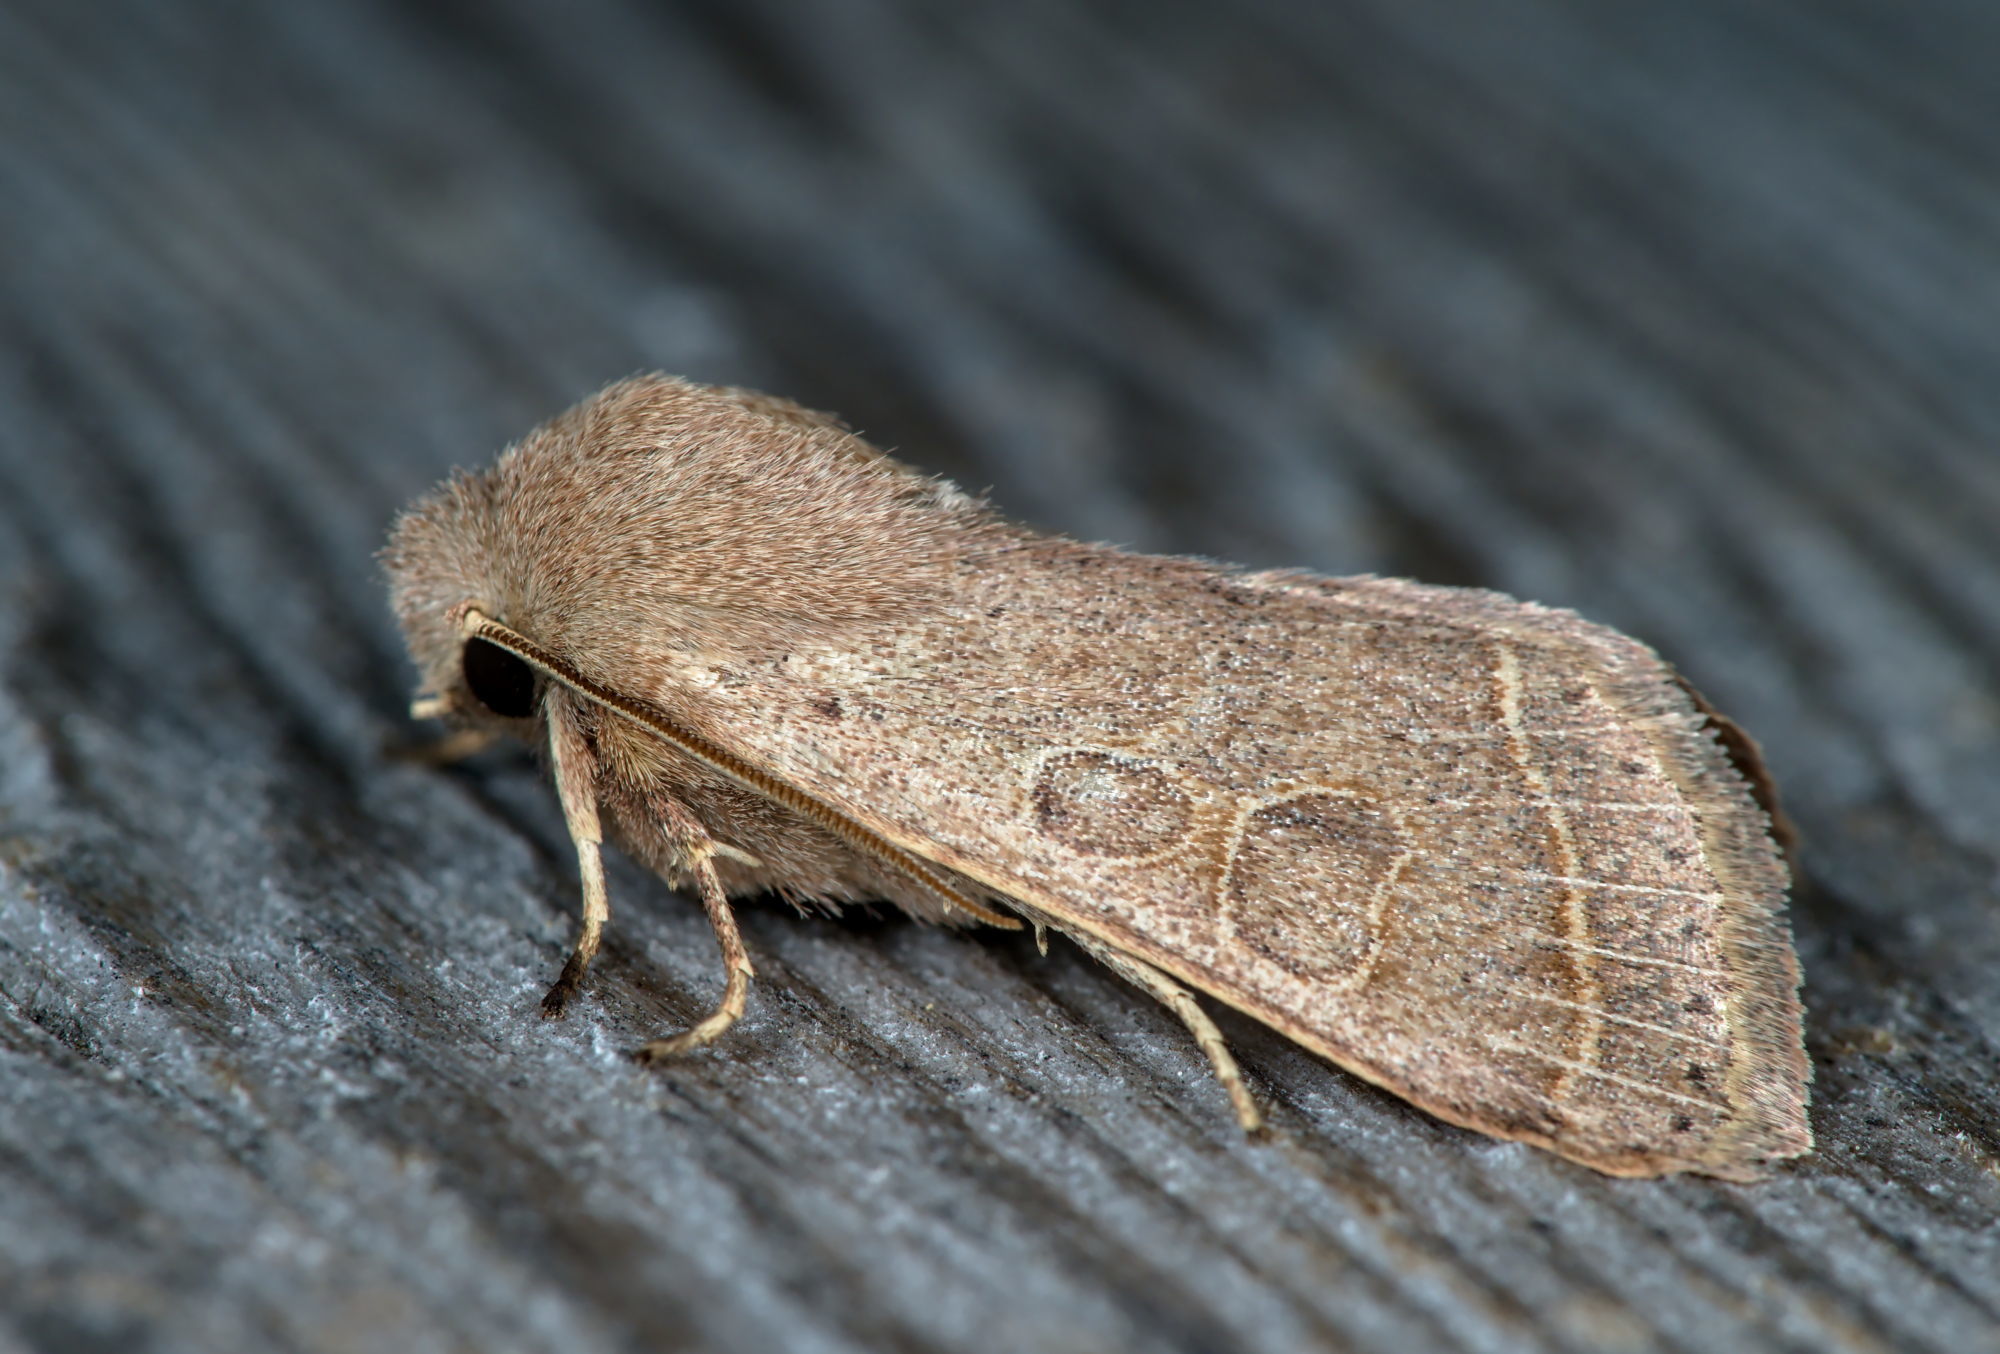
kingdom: Animalia
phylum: Arthropoda
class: Insecta
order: Lepidoptera
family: Noctuidae
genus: Orthosia
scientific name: Orthosia cerasi
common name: Common quaker
